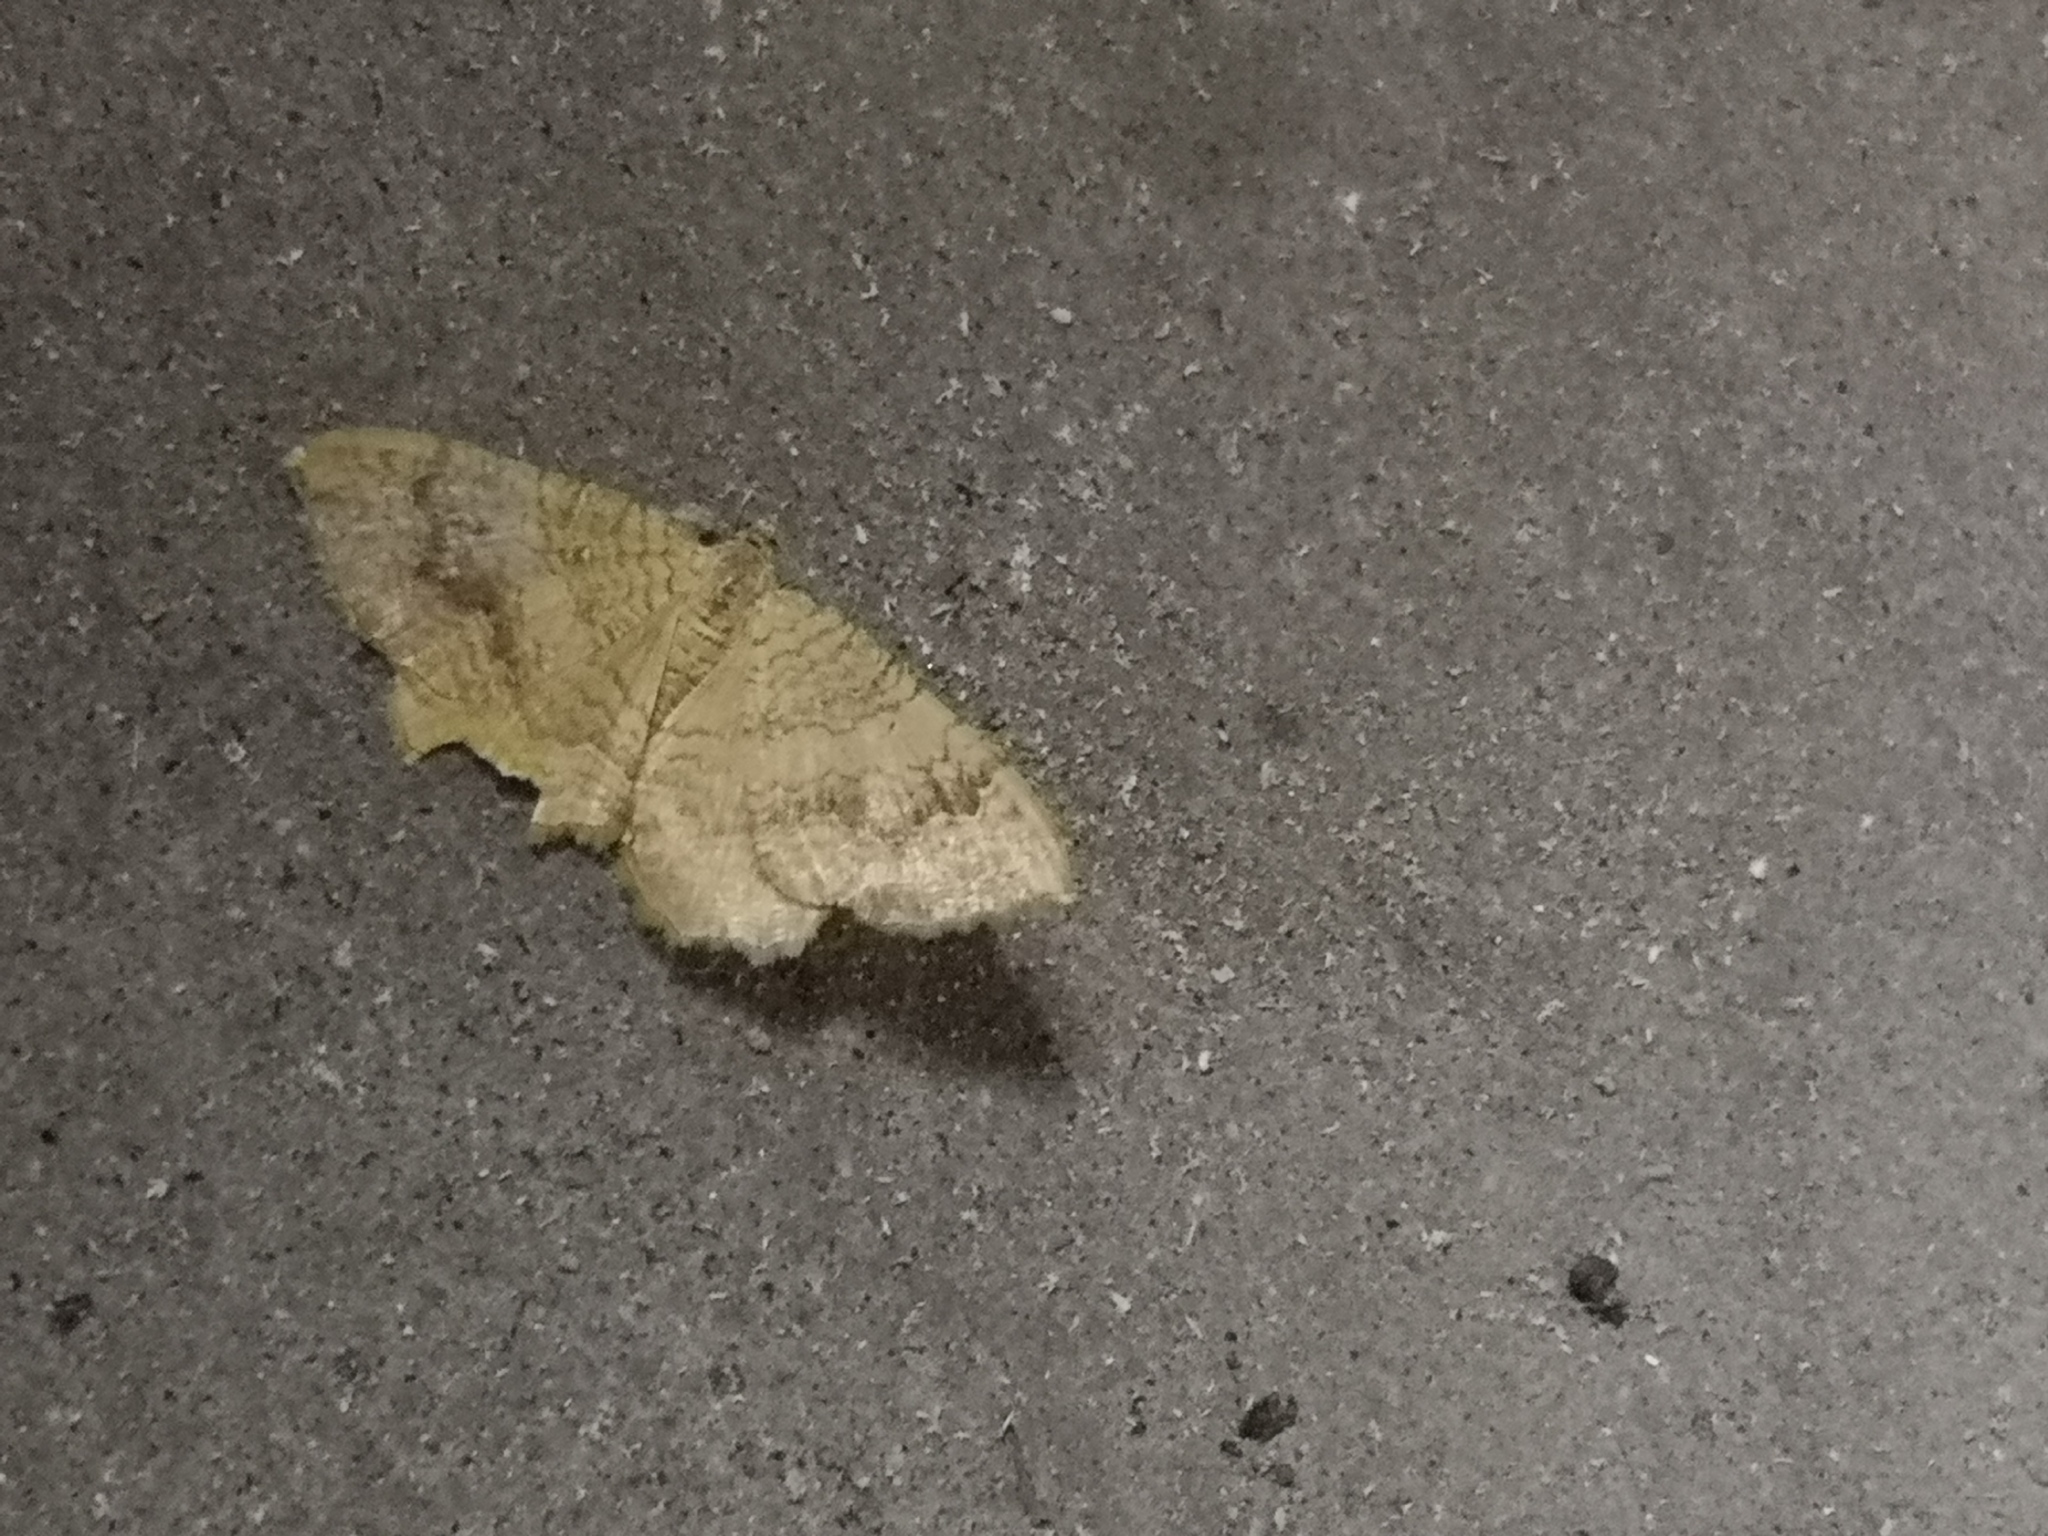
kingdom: Animalia
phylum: Arthropoda
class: Insecta
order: Lepidoptera
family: Geometridae
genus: Camptogramma
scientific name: Camptogramma bilineata
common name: Yellow shell
